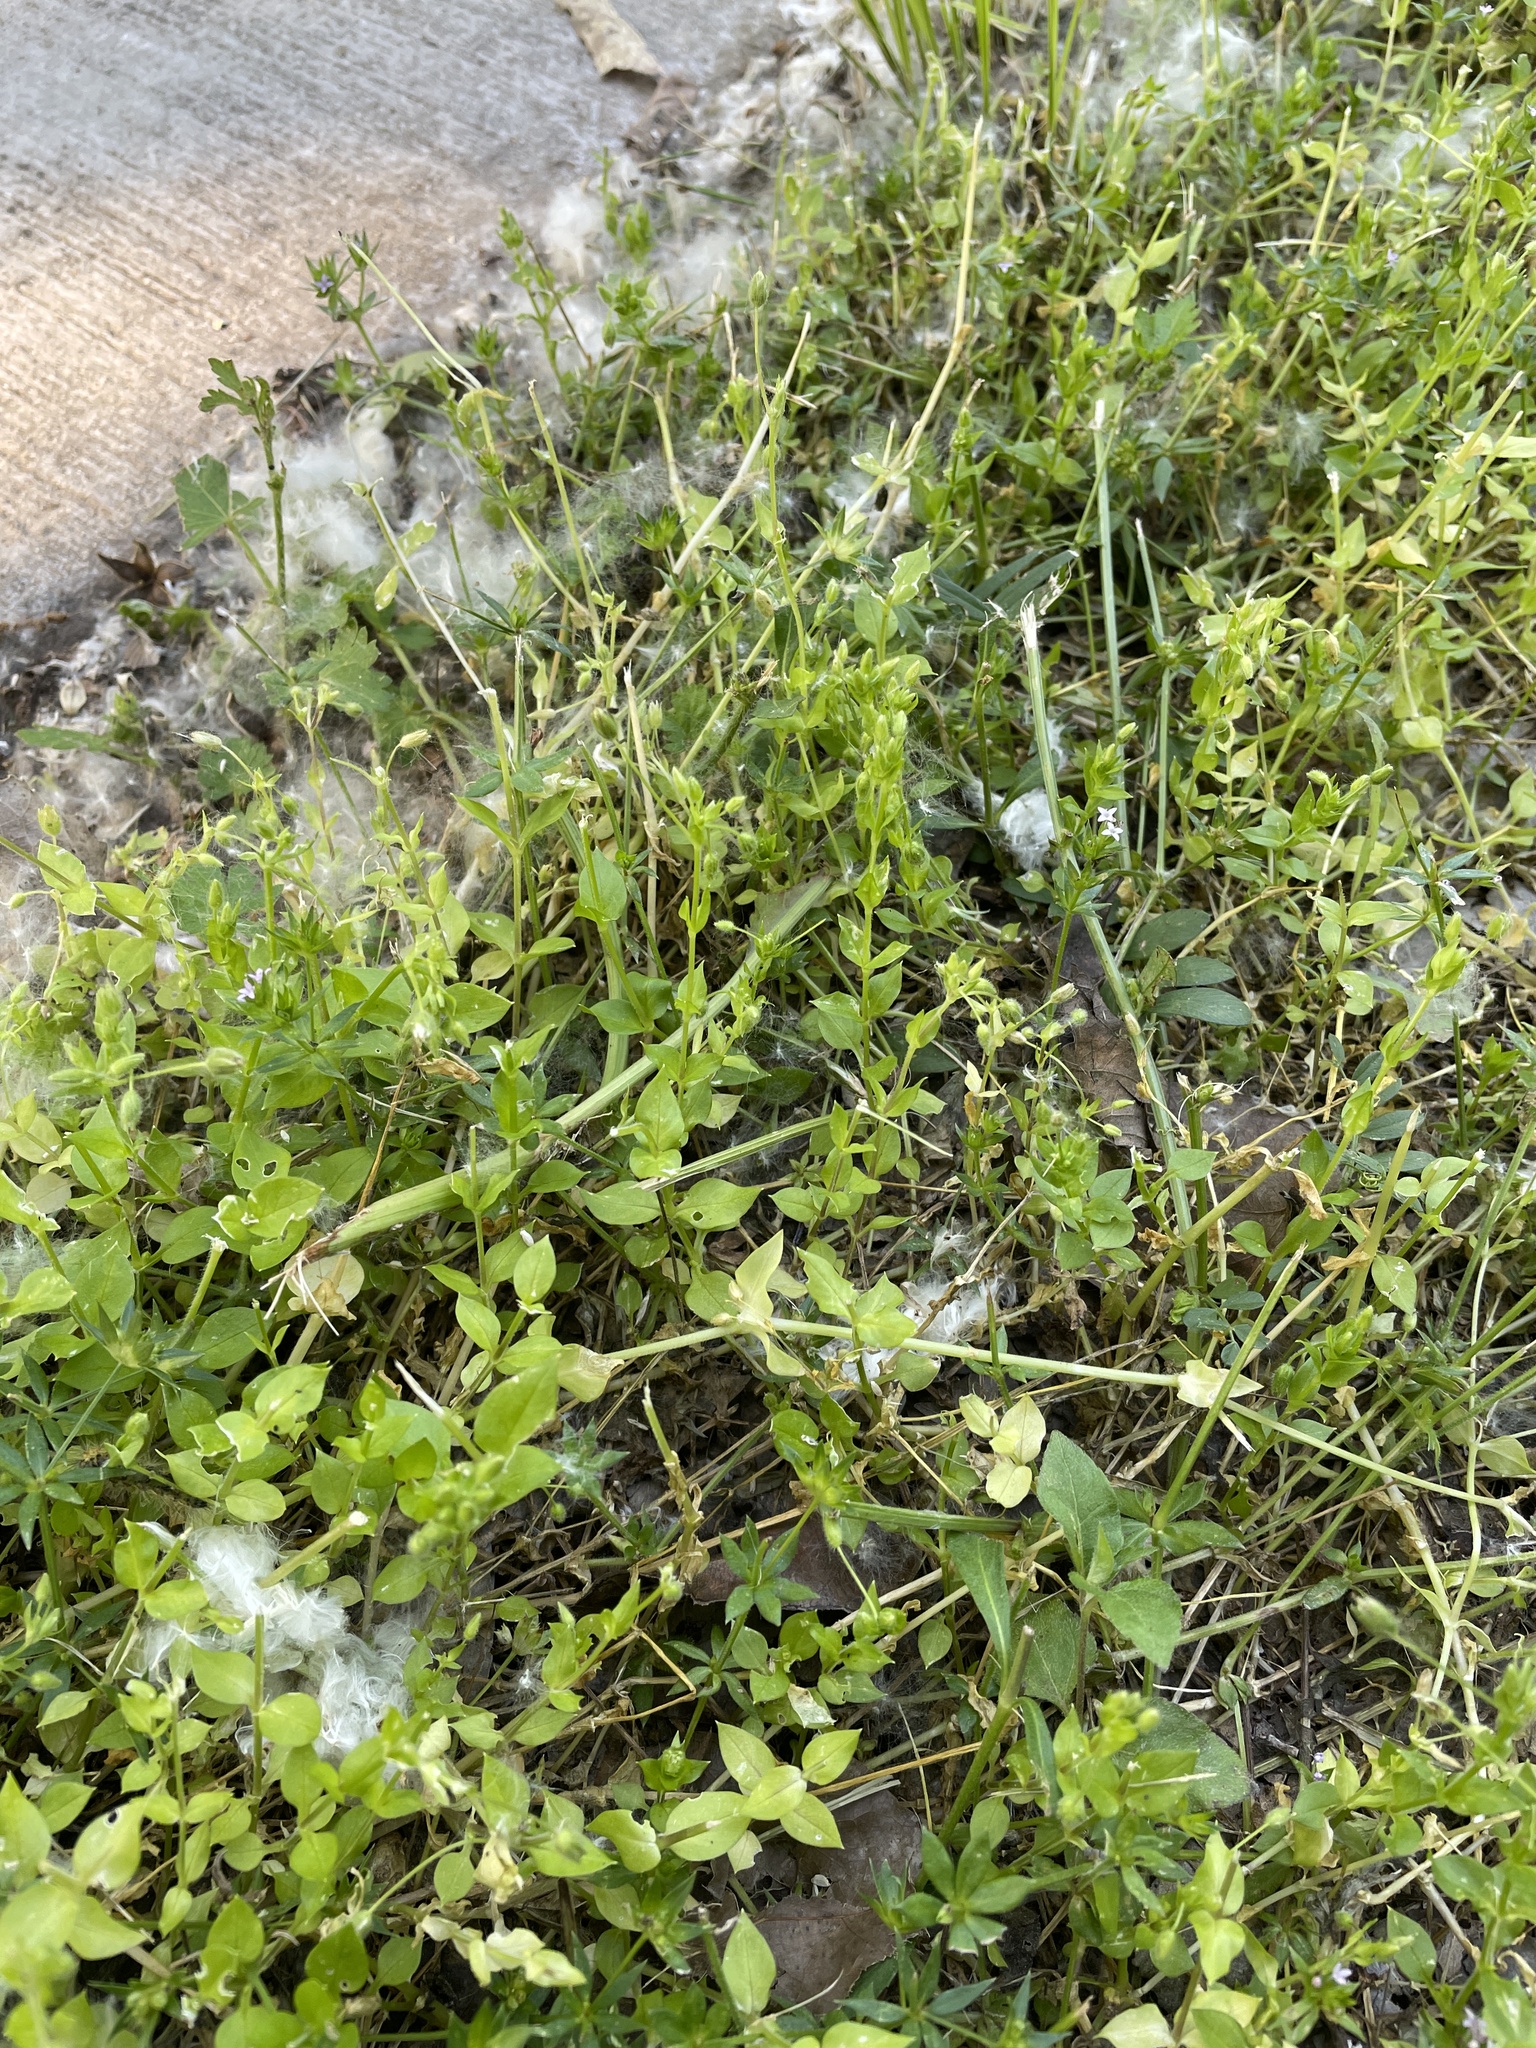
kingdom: Plantae
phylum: Tracheophyta
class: Magnoliopsida
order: Caryophyllales
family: Caryophyllaceae
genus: Stellaria
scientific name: Stellaria media
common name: Common chickweed
